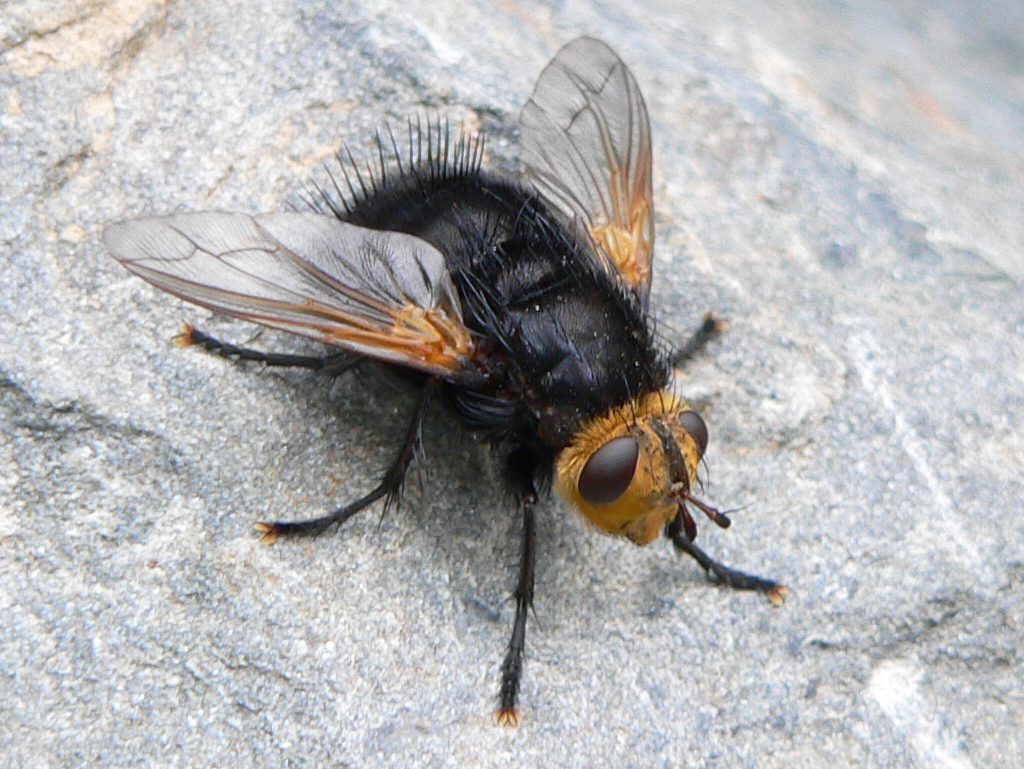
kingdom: Animalia
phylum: Arthropoda
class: Insecta
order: Diptera
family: Tachinidae
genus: Tachina
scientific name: Tachina grossa
